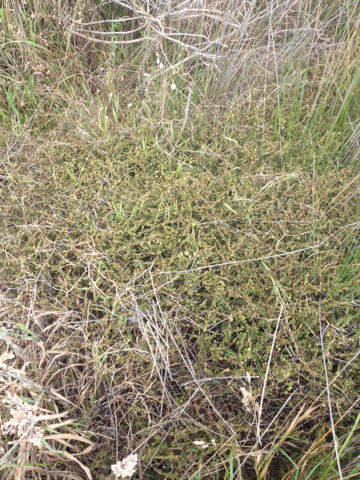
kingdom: Plantae
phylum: Tracheophyta
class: Magnoliopsida
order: Gentianales
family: Rubiaceae
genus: Coprosma
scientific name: Coprosma acerosa
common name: Sand coprosma
